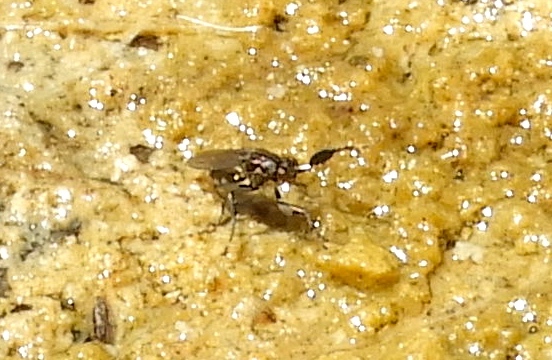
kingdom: Animalia
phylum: Arthropoda
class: Insecta
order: Diptera
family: Ephydridae
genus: Ochthera
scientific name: Ochthera
